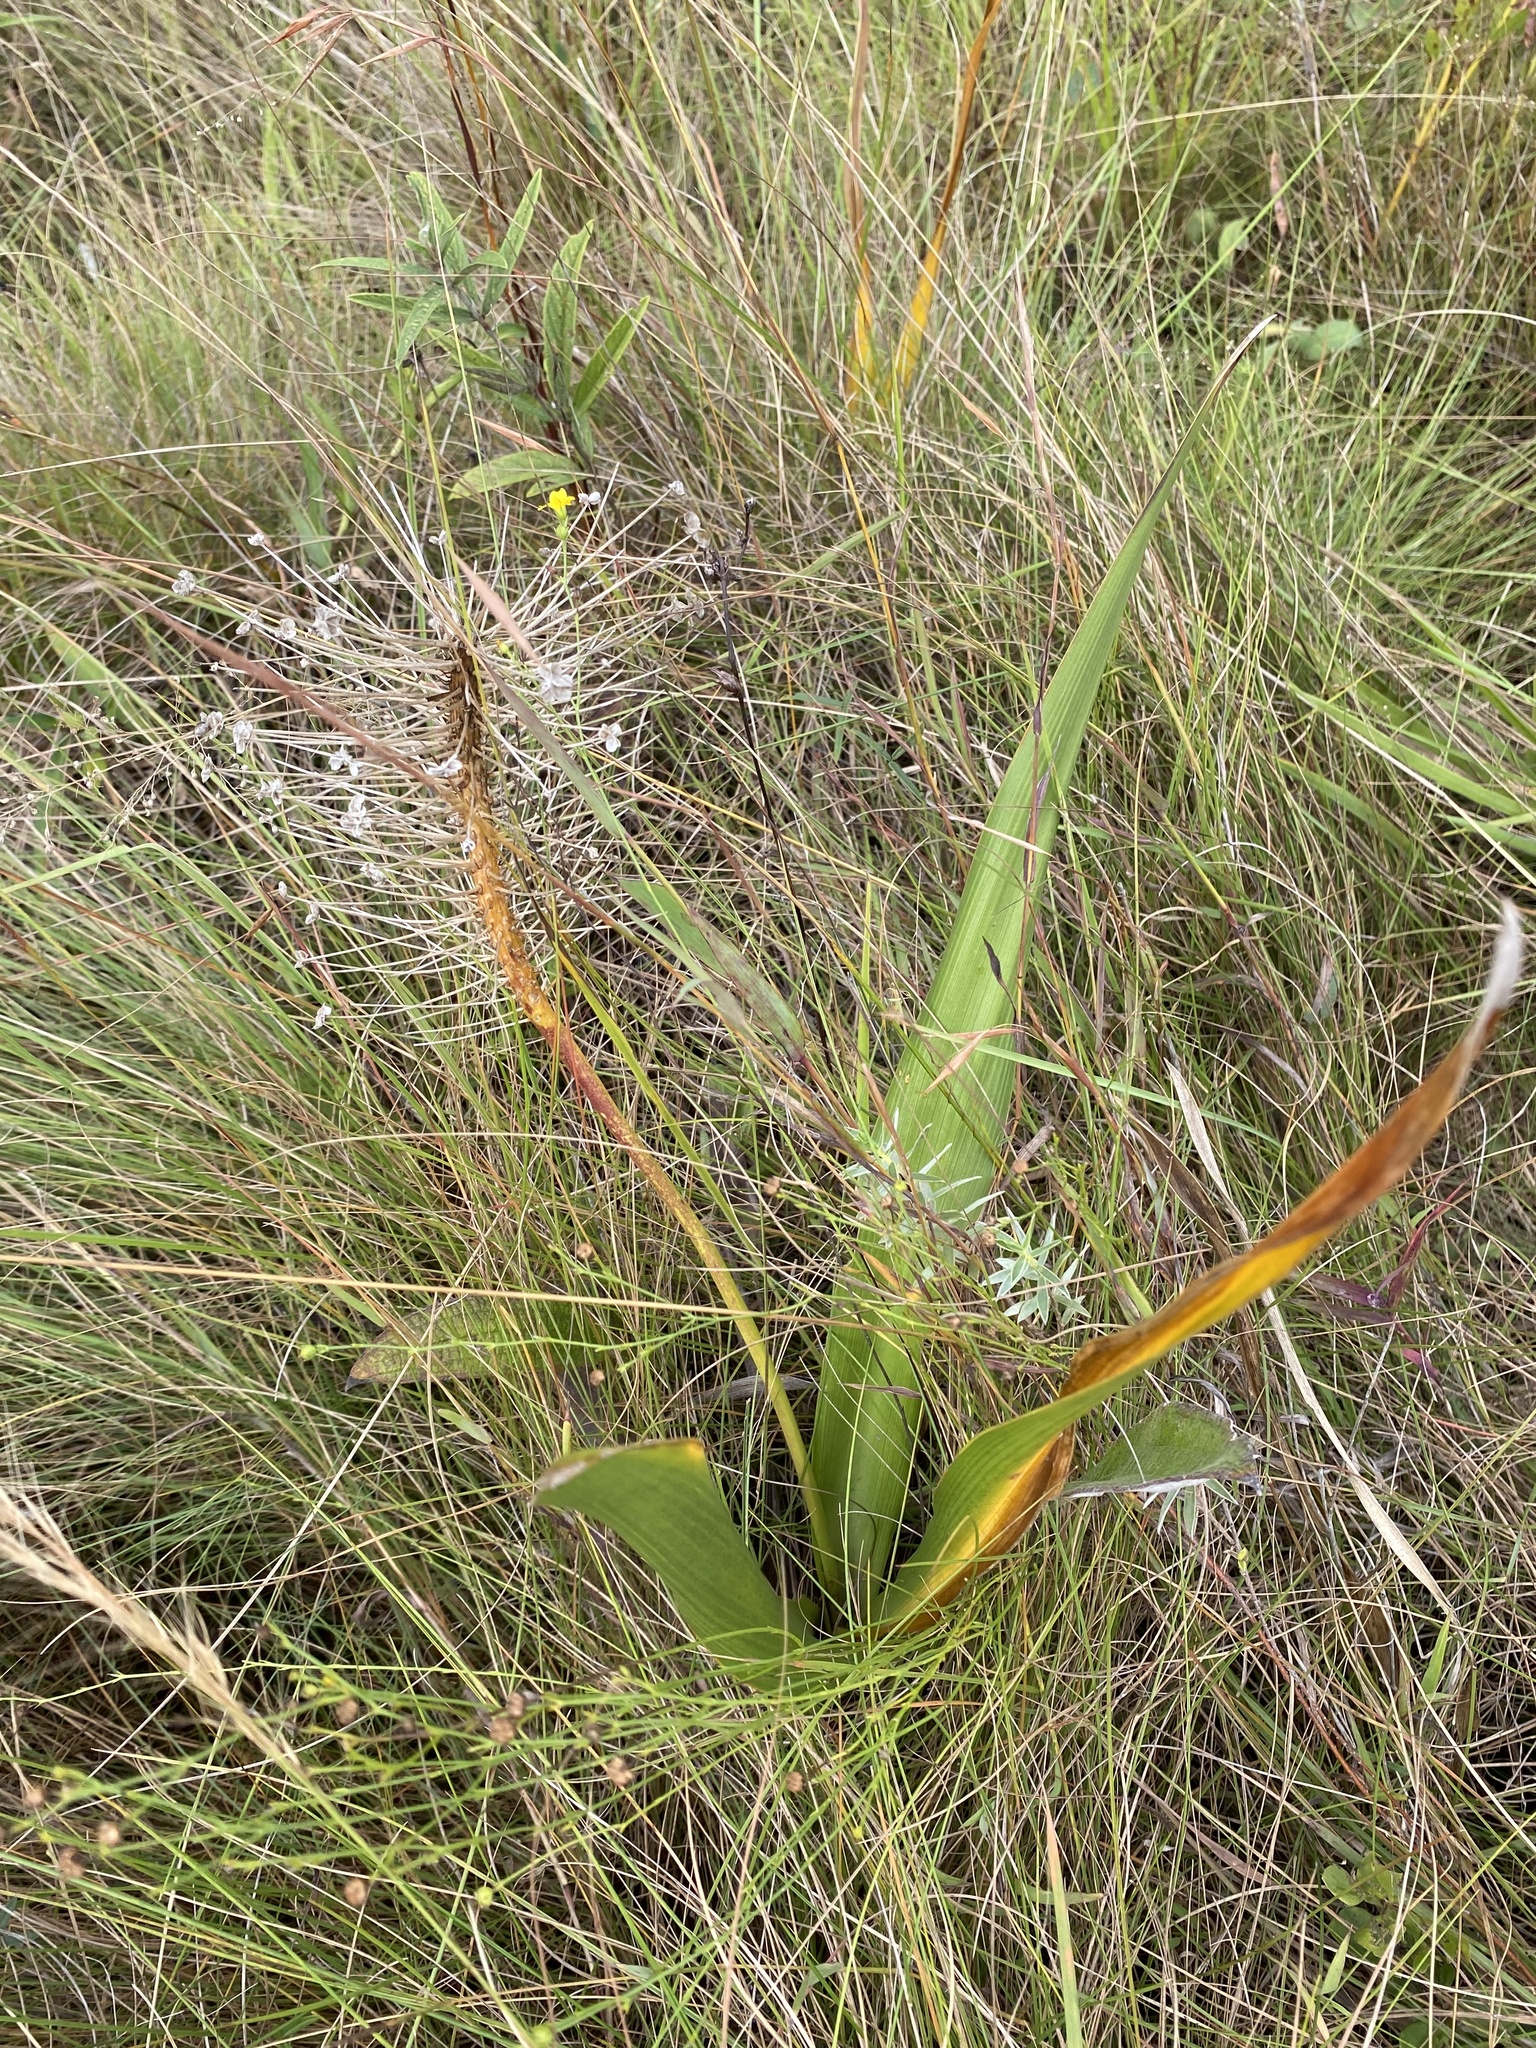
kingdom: Plantae
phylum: Tracheophyta
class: Liliopsida
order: Asparagales
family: Asparagaceae
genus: Schizocarphus
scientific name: Schizocarphus nervosus
